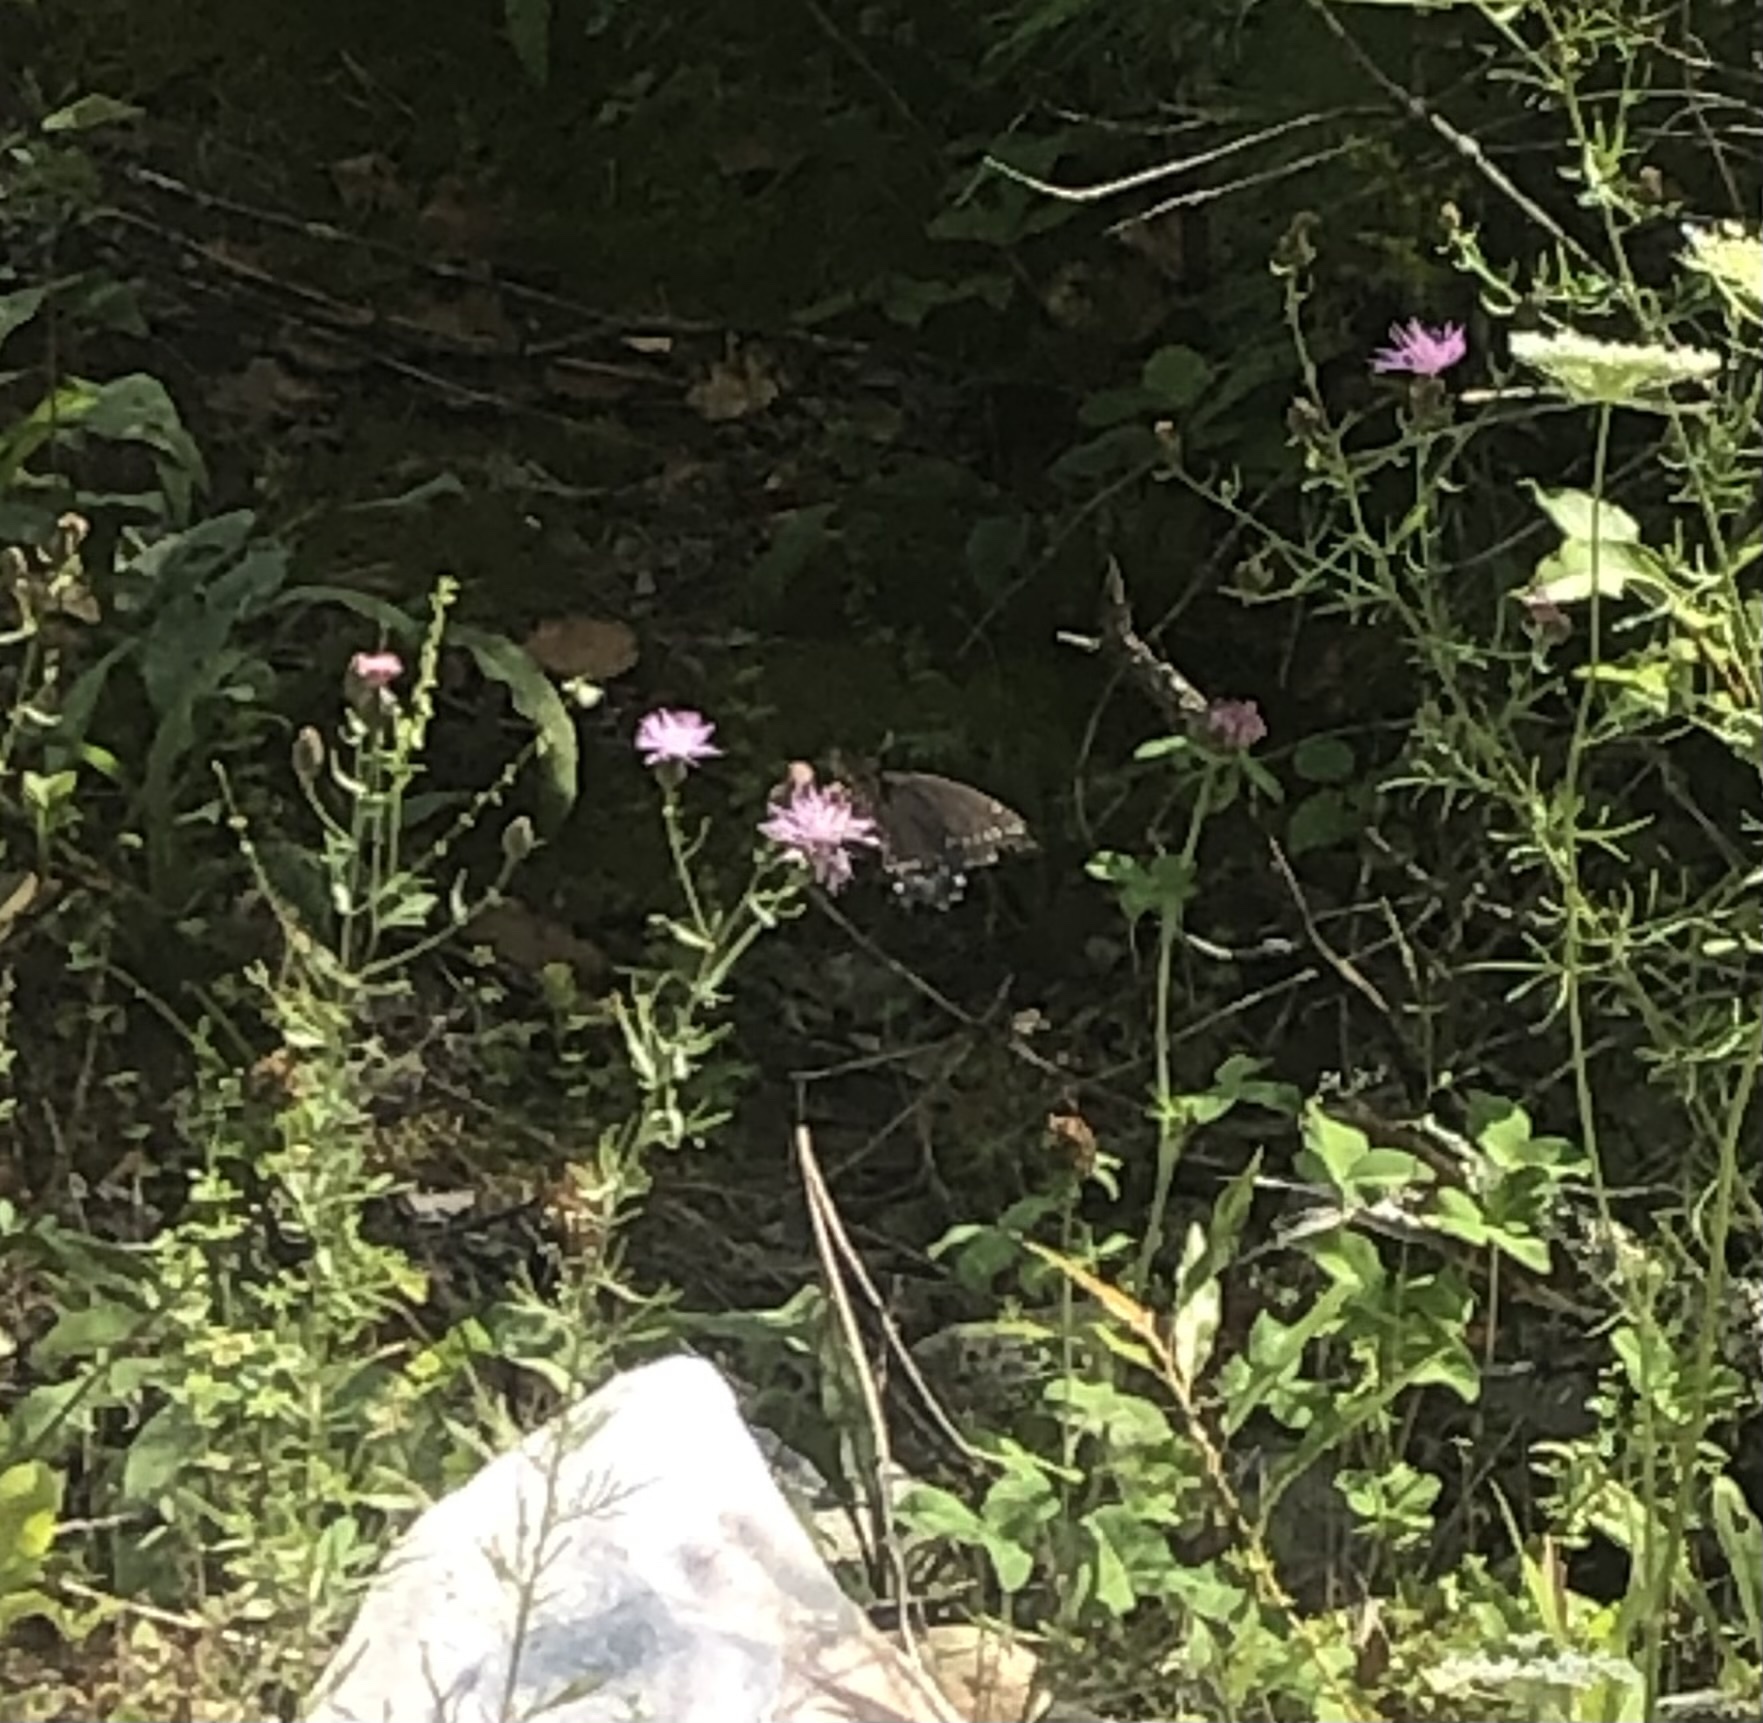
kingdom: Animalia
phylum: Arthropoda
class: Insecta
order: Lepidoptera
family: Papilionidae
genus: Papilio
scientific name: Papilio polyxenes
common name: Black swallowtail
